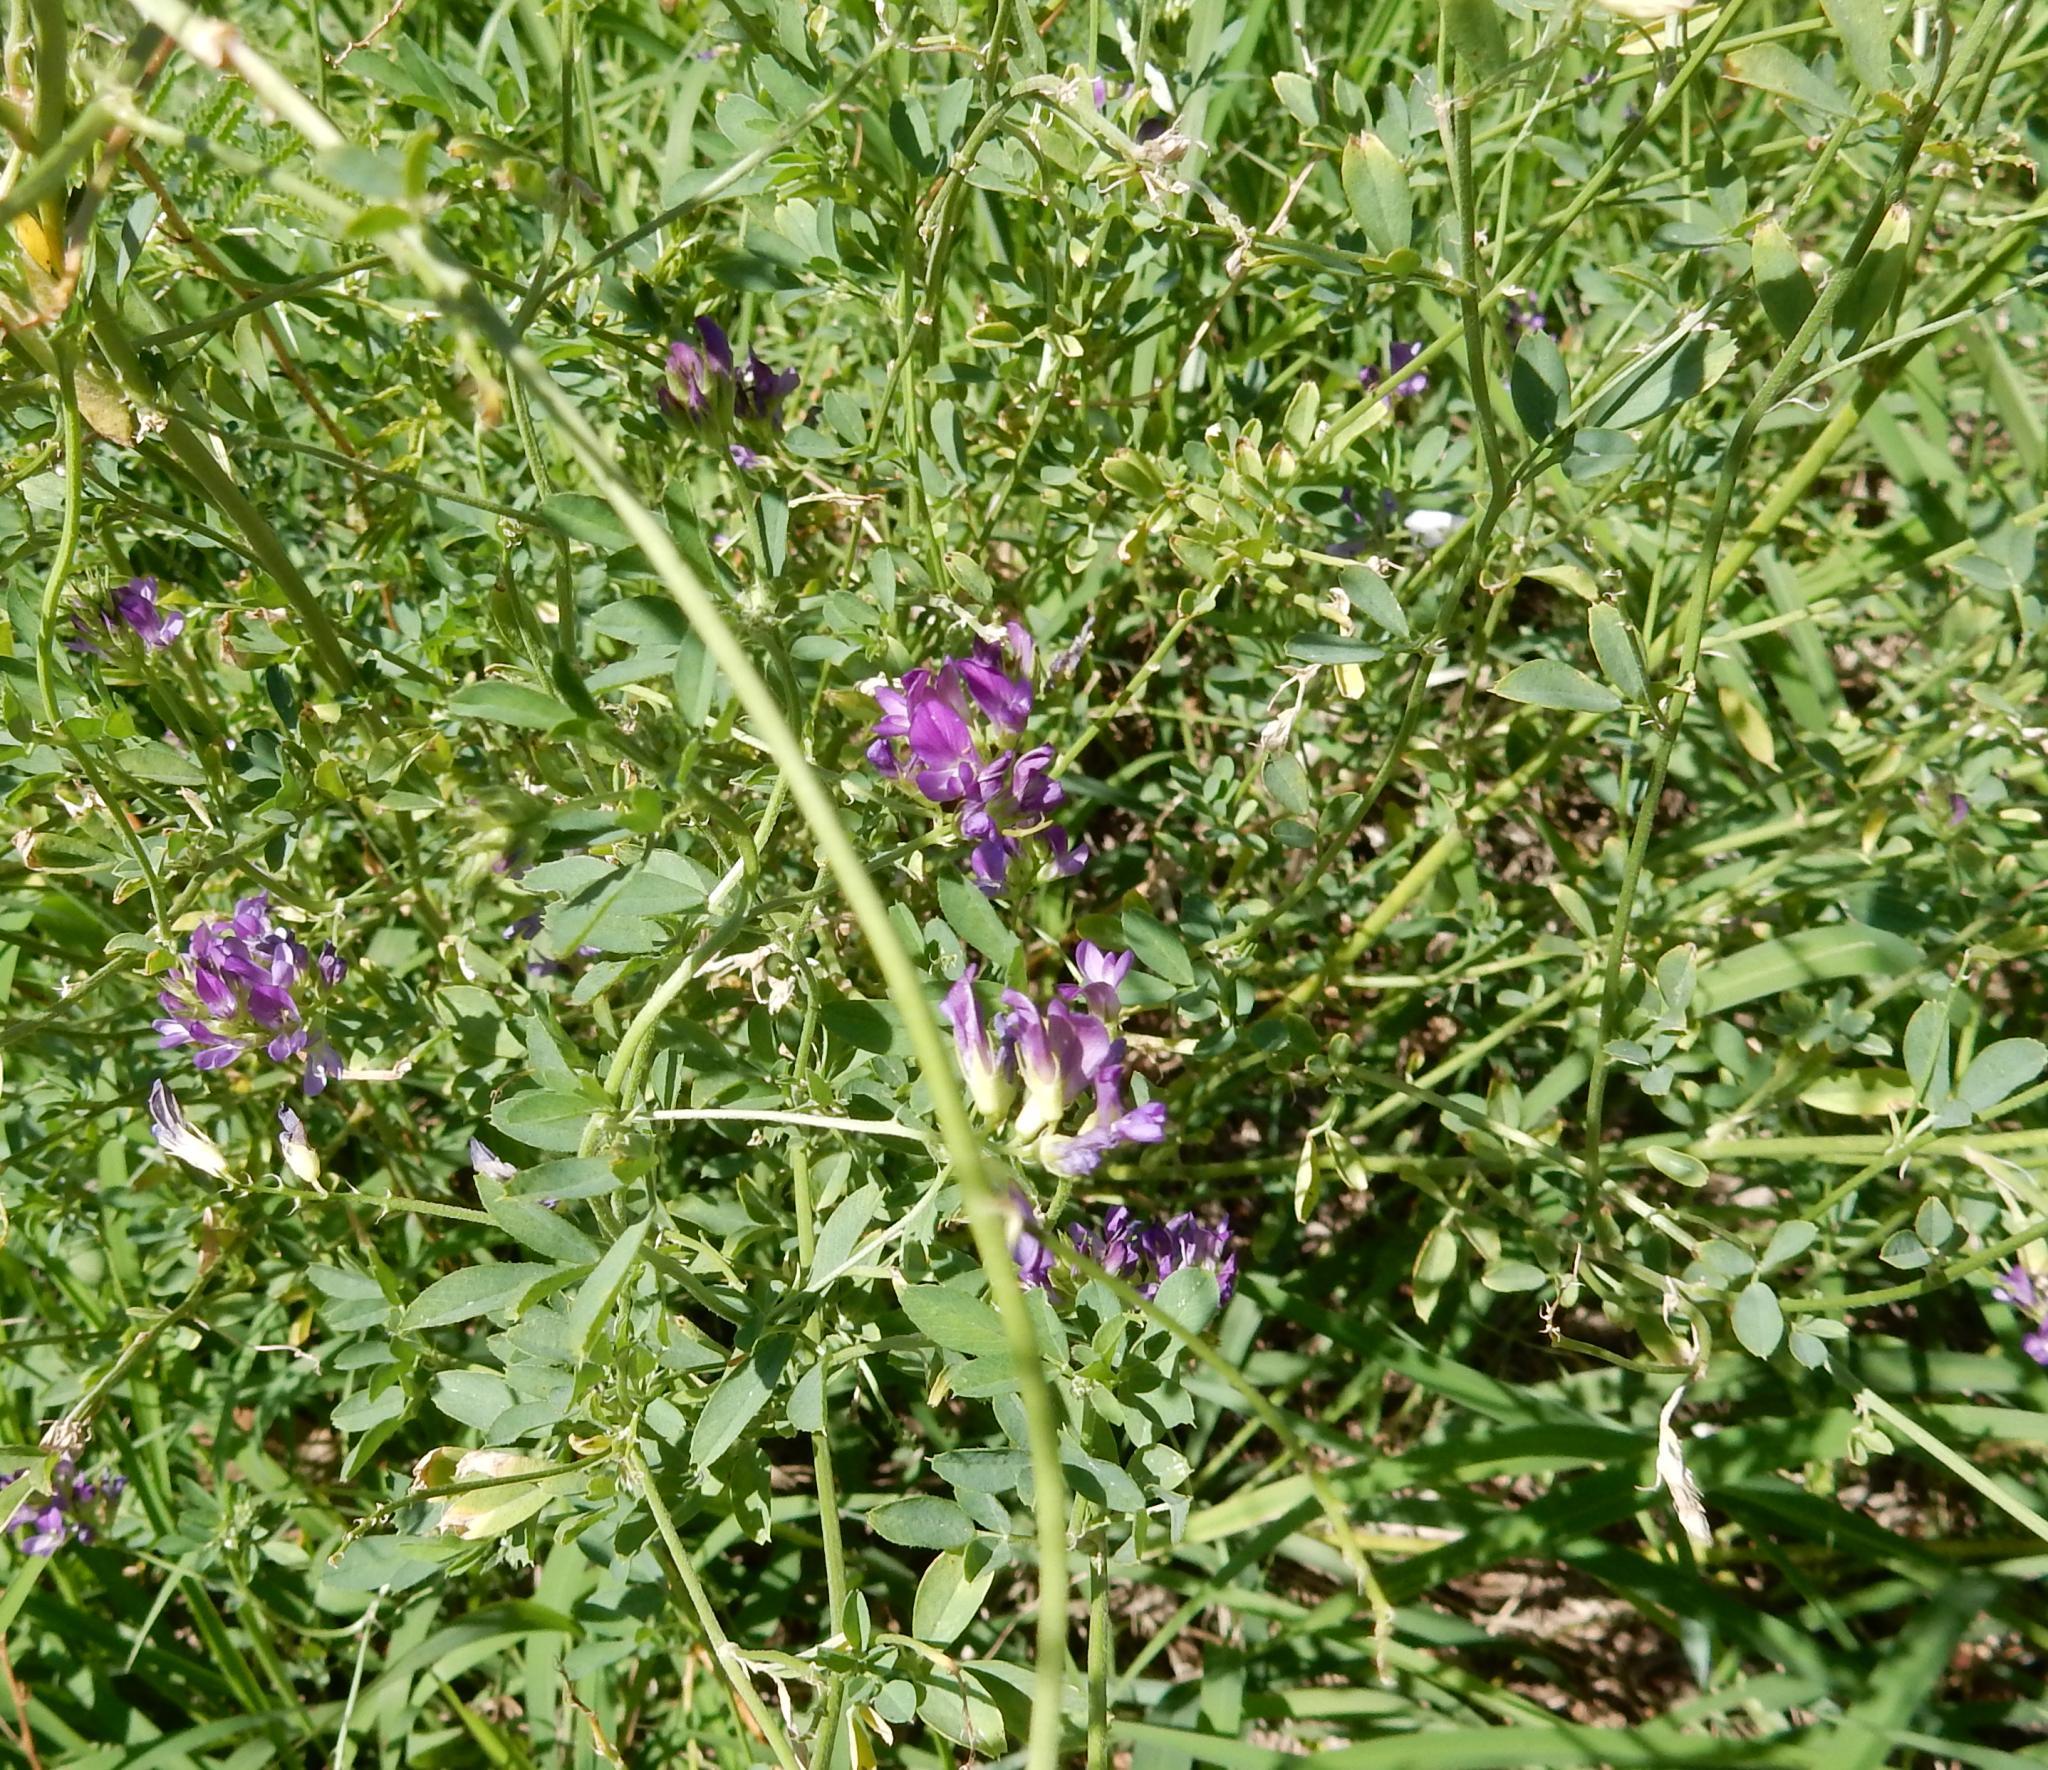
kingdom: Plantae
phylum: Tracheophyta
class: Magnoliopsida
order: Fabales
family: Fabaceae
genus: Medicago
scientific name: Medicago sativa
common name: Alfalfa
